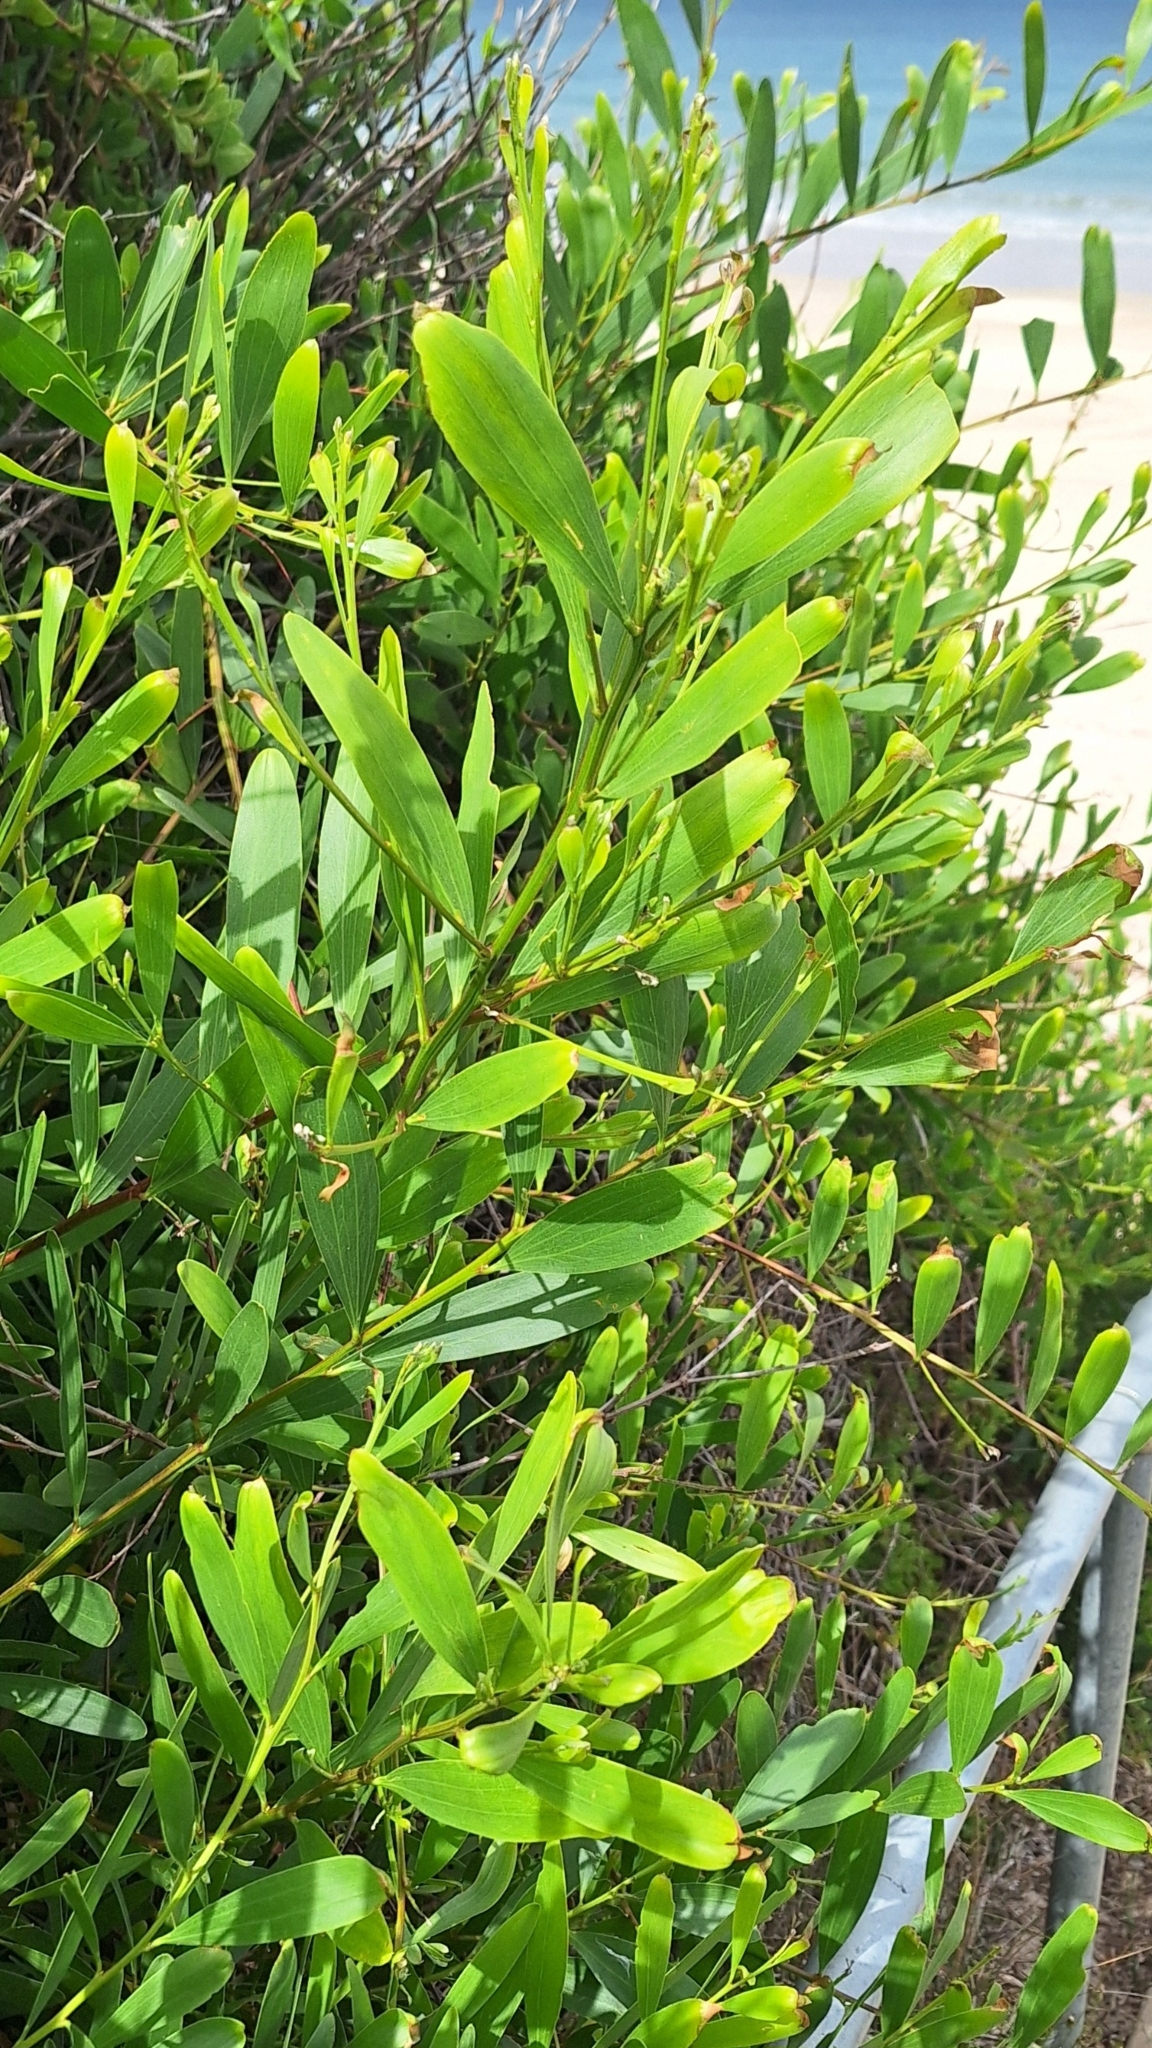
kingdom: Plantae
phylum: Tracheophyta
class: Magnoliopsida
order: Fabales
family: Fabaceae
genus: Acacia
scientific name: Acacia longifolia
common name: Sydney golden wattle
